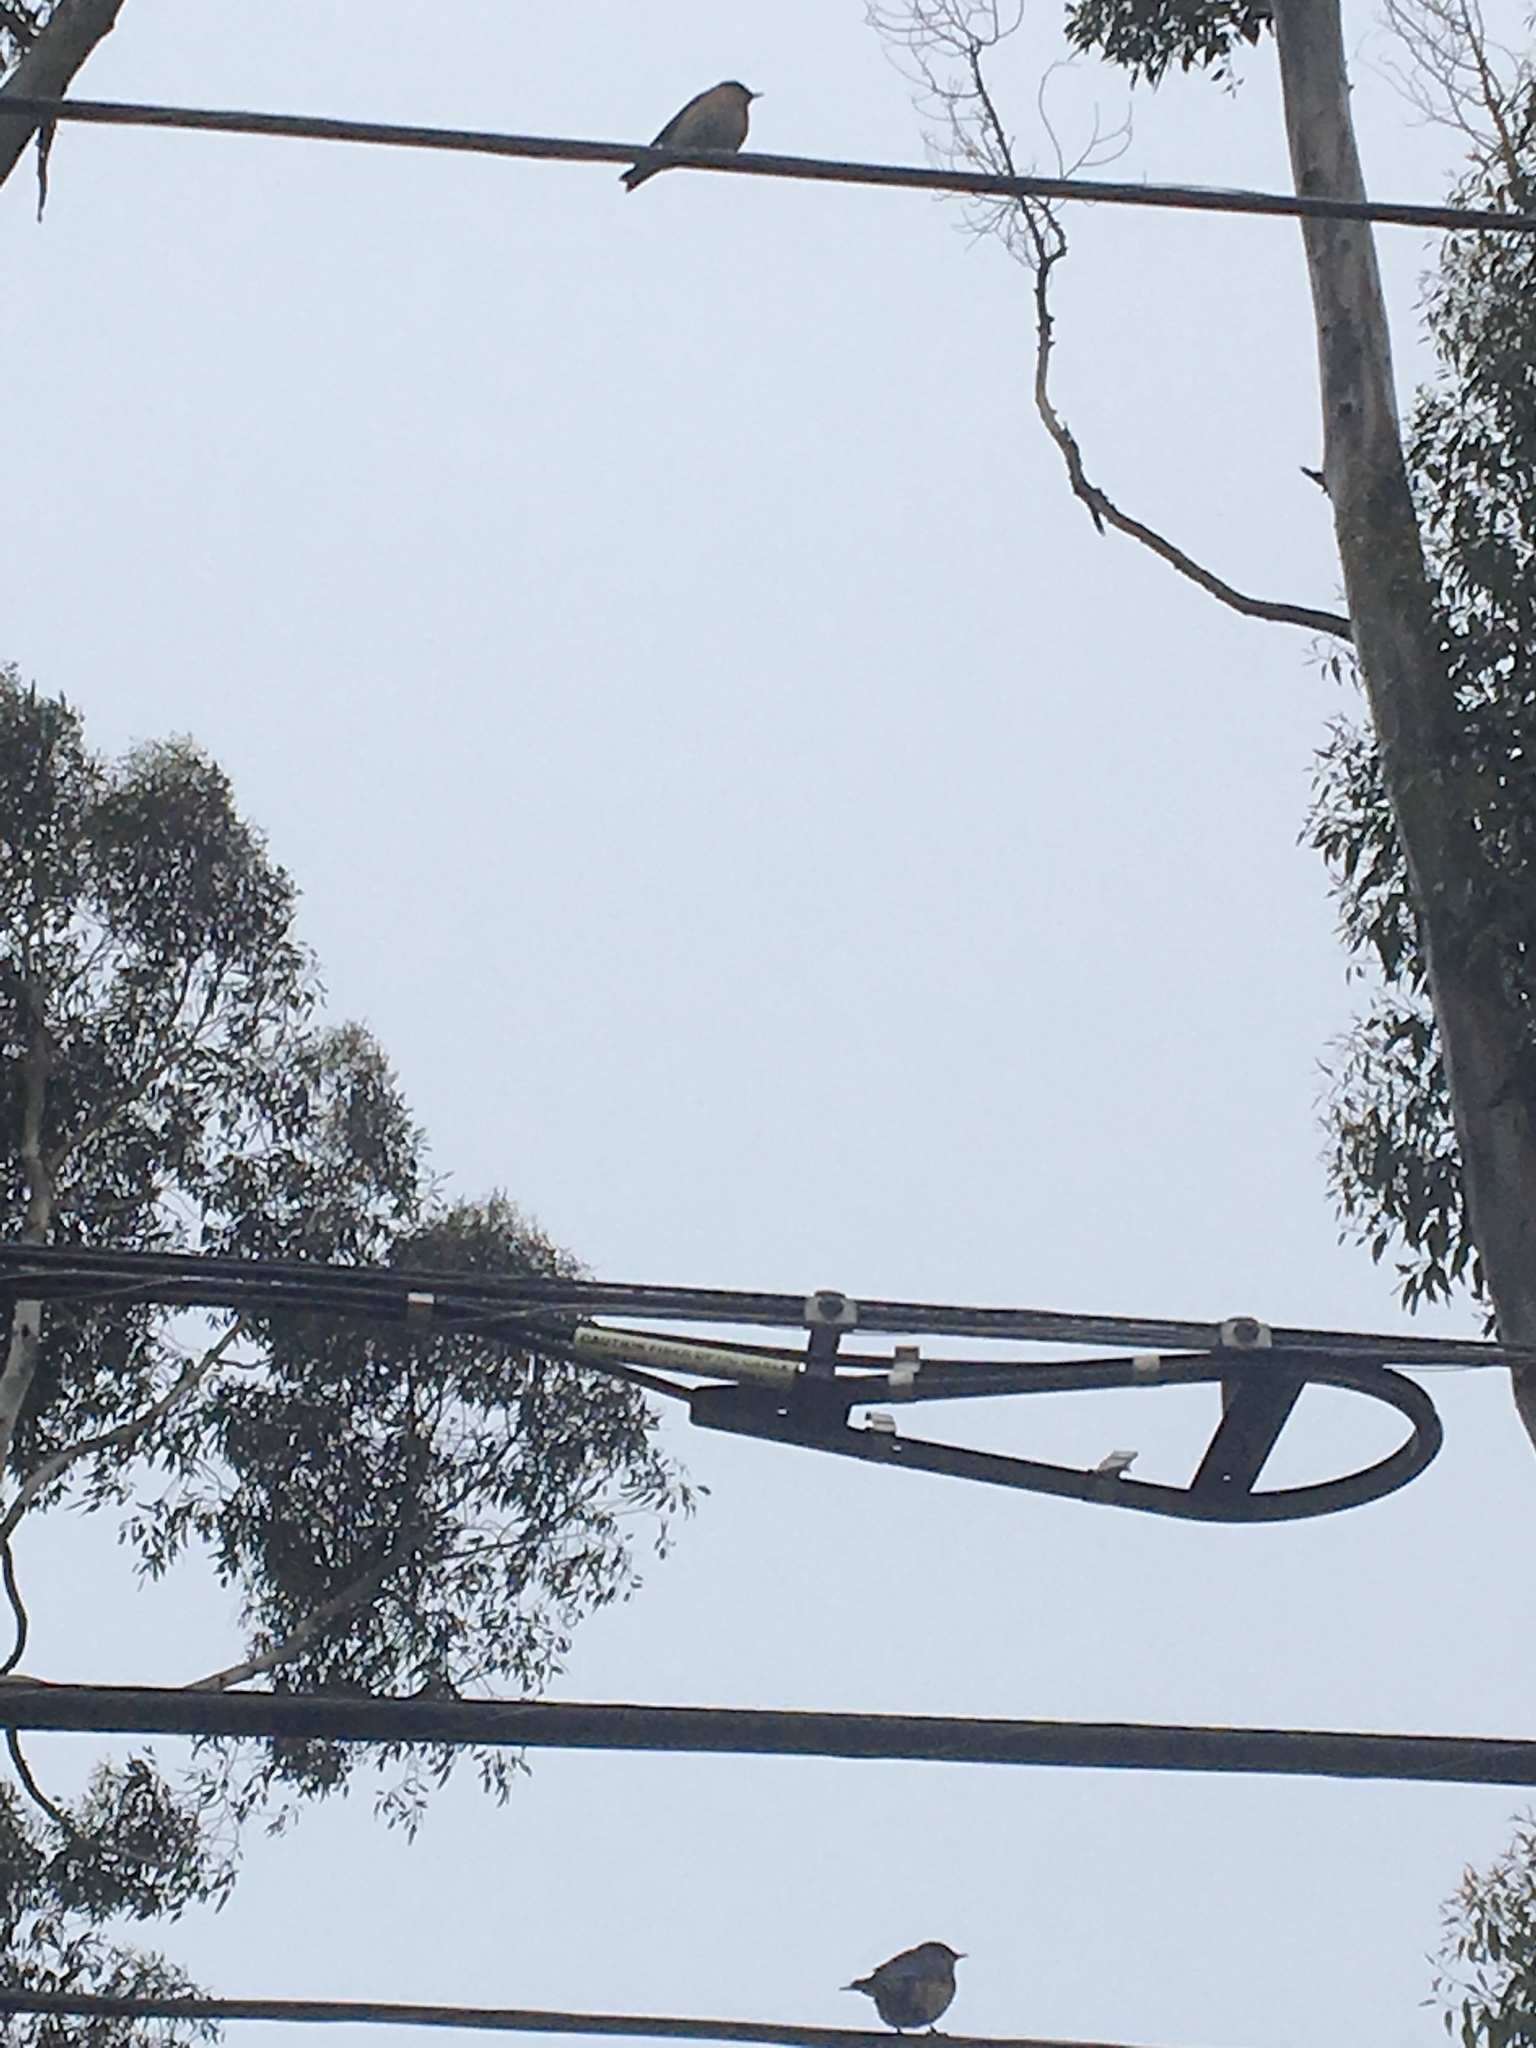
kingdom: Animalia
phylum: Chordata
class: Aves
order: Passeriformes
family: Turdidae
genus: Sialia
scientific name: Sialia mexicana
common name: Western bluebird
